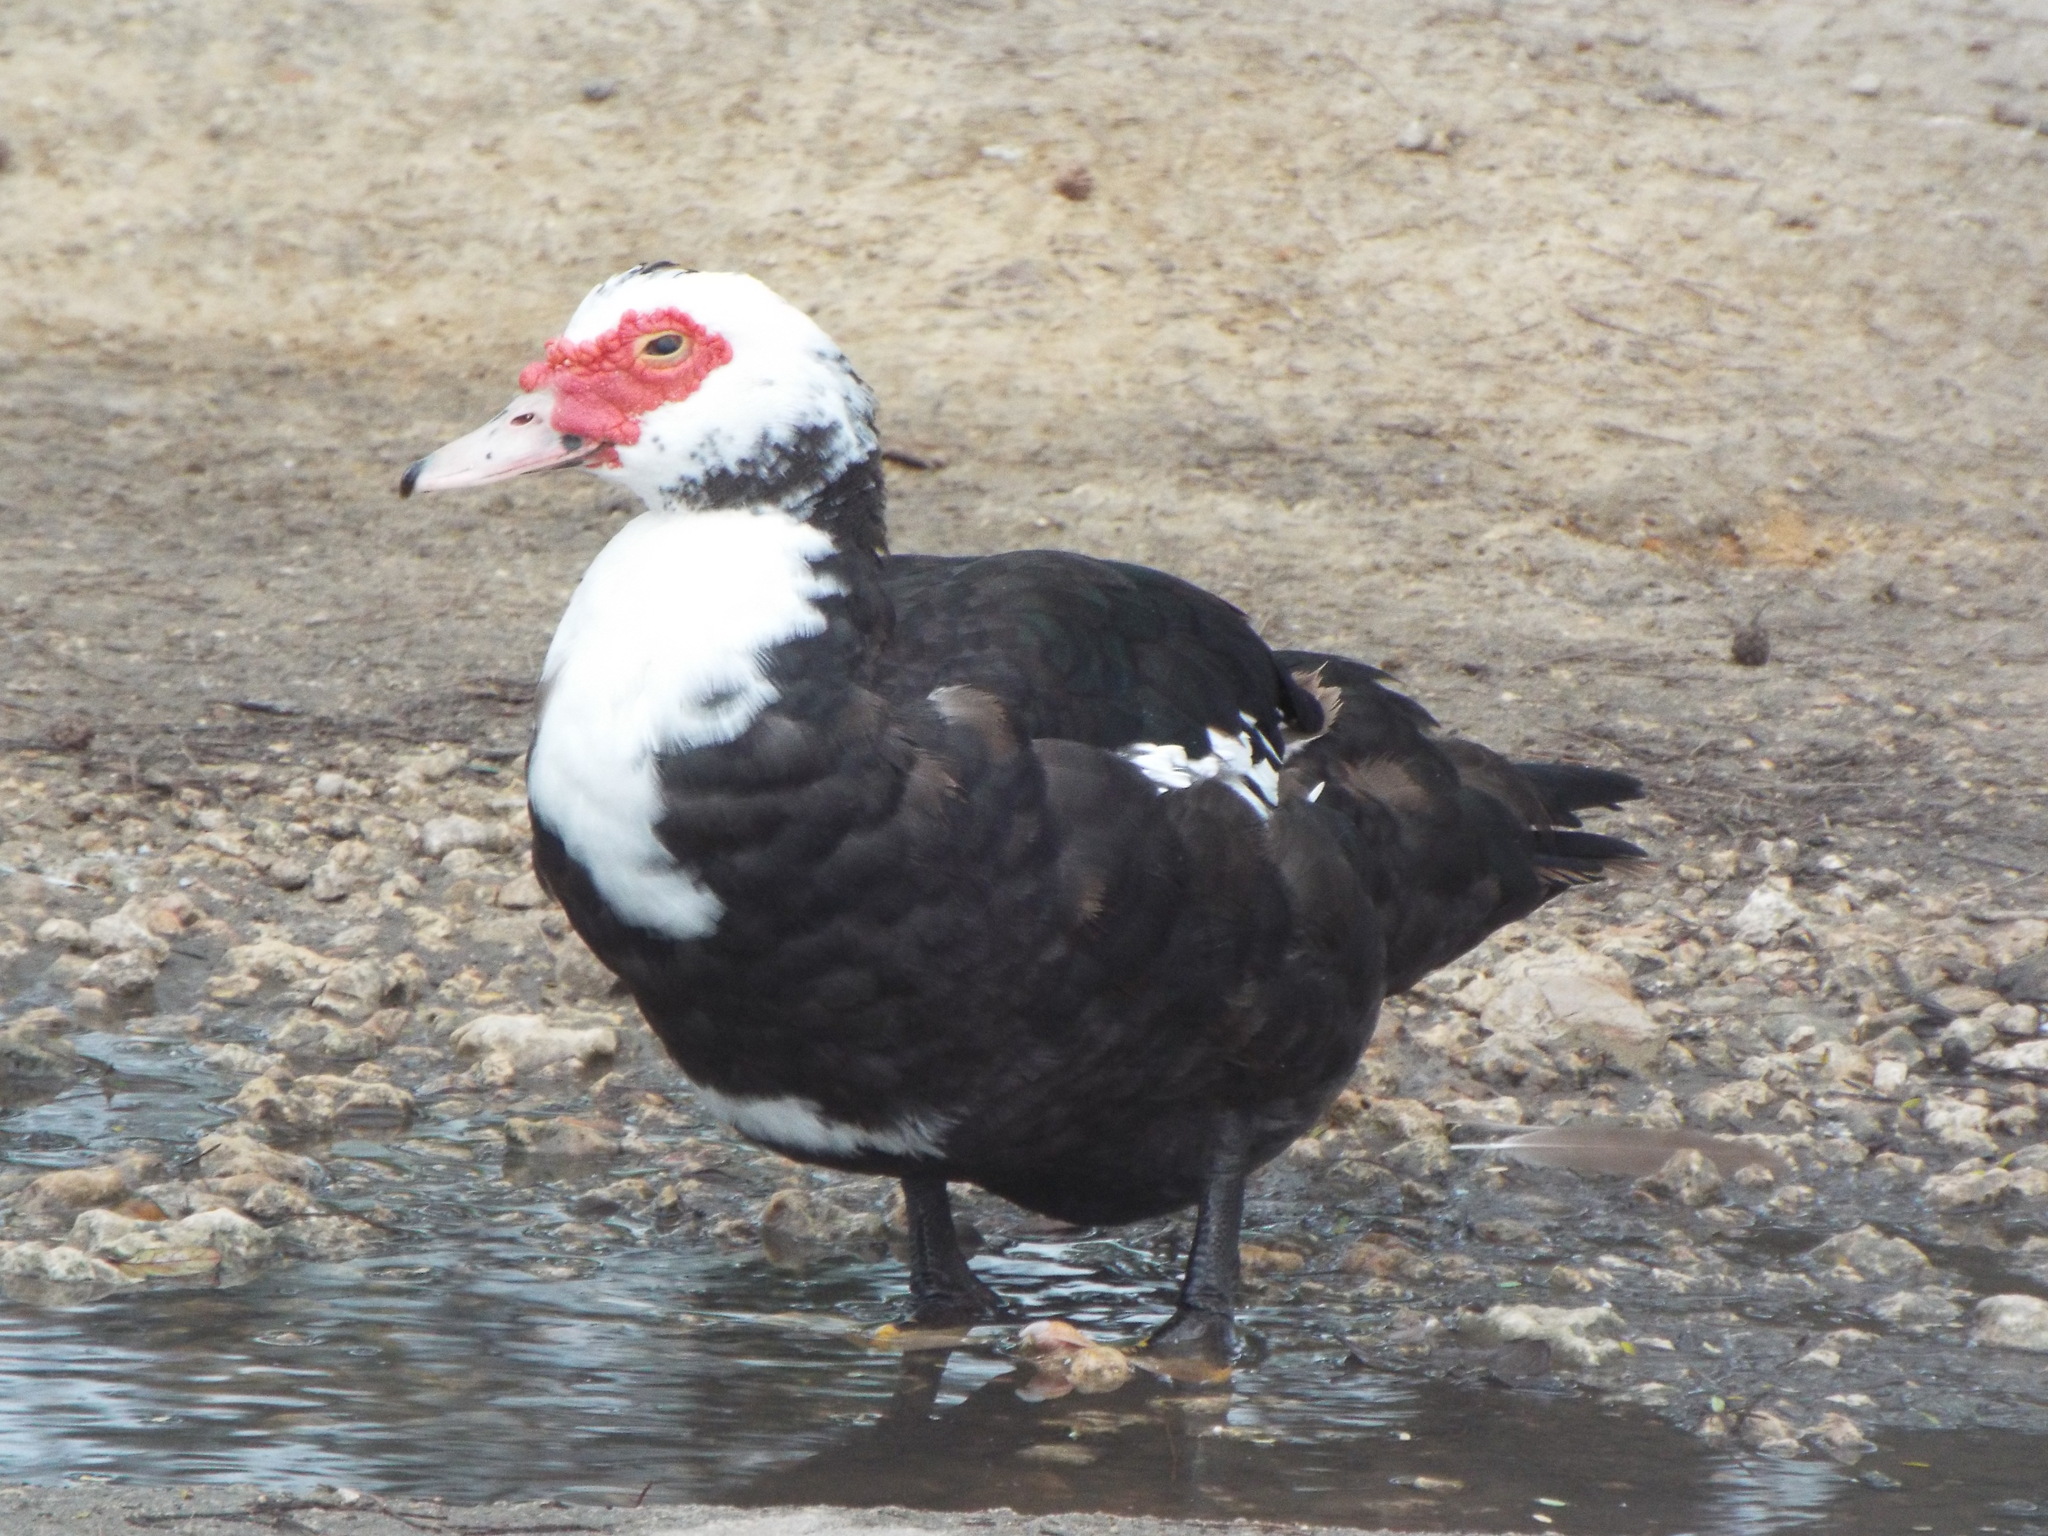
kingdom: Animalia
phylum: Chordata
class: Aves
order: Anseriformes
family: Anatidae
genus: Cairina
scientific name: Cairina moschata
